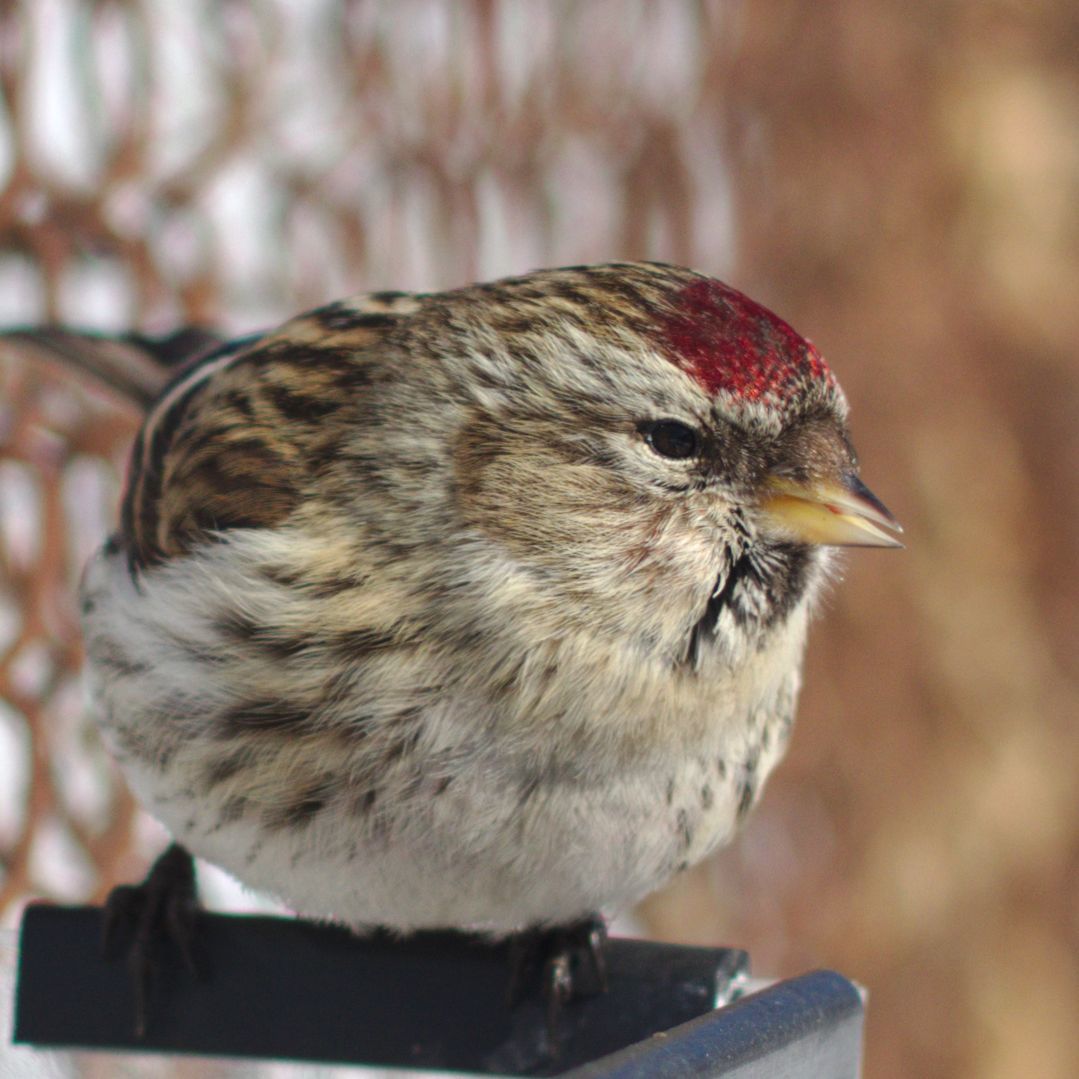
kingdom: Animalia
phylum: Chordata
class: Aves
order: Passeriformes
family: Fringillidae
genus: Acanthis
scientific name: Acanthis flammea
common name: Common redpoll
